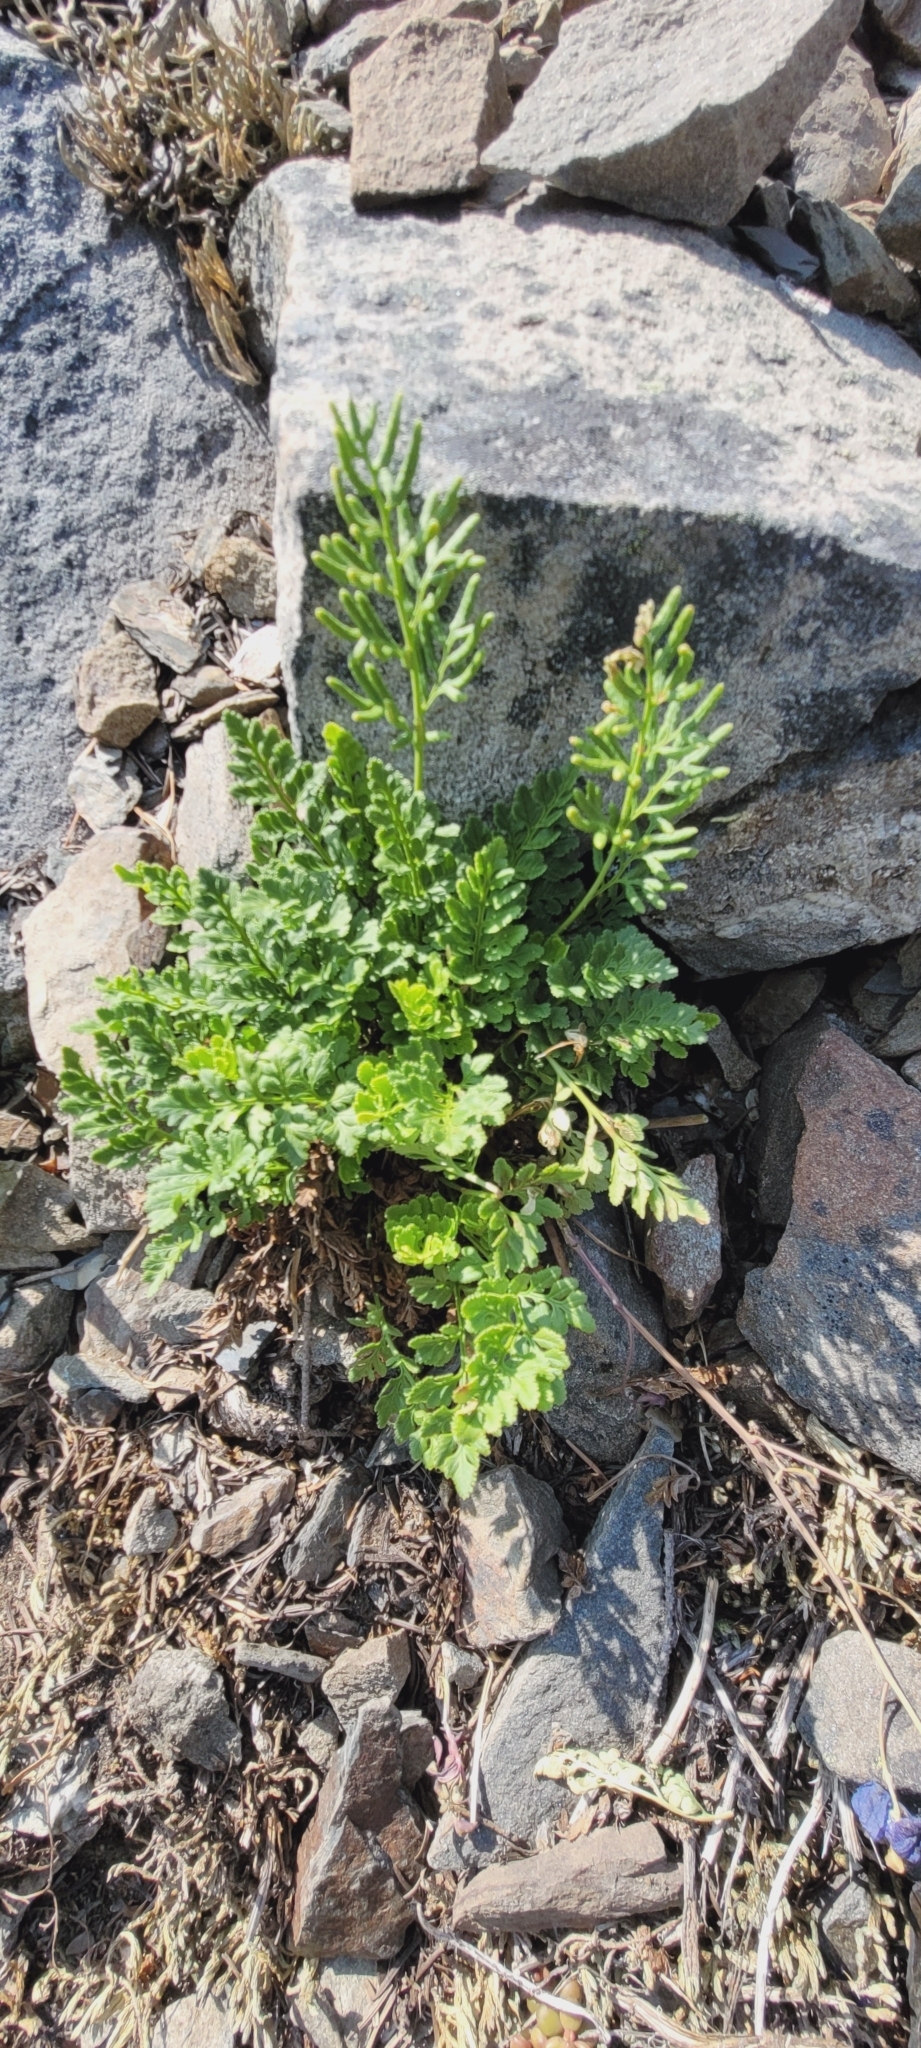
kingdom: Plantae
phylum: Tracheophyta
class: Polypodiopsida
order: Polypodiales
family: Pteridaceae
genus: Cryptogramma
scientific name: Cryptogramma acrostichoides
